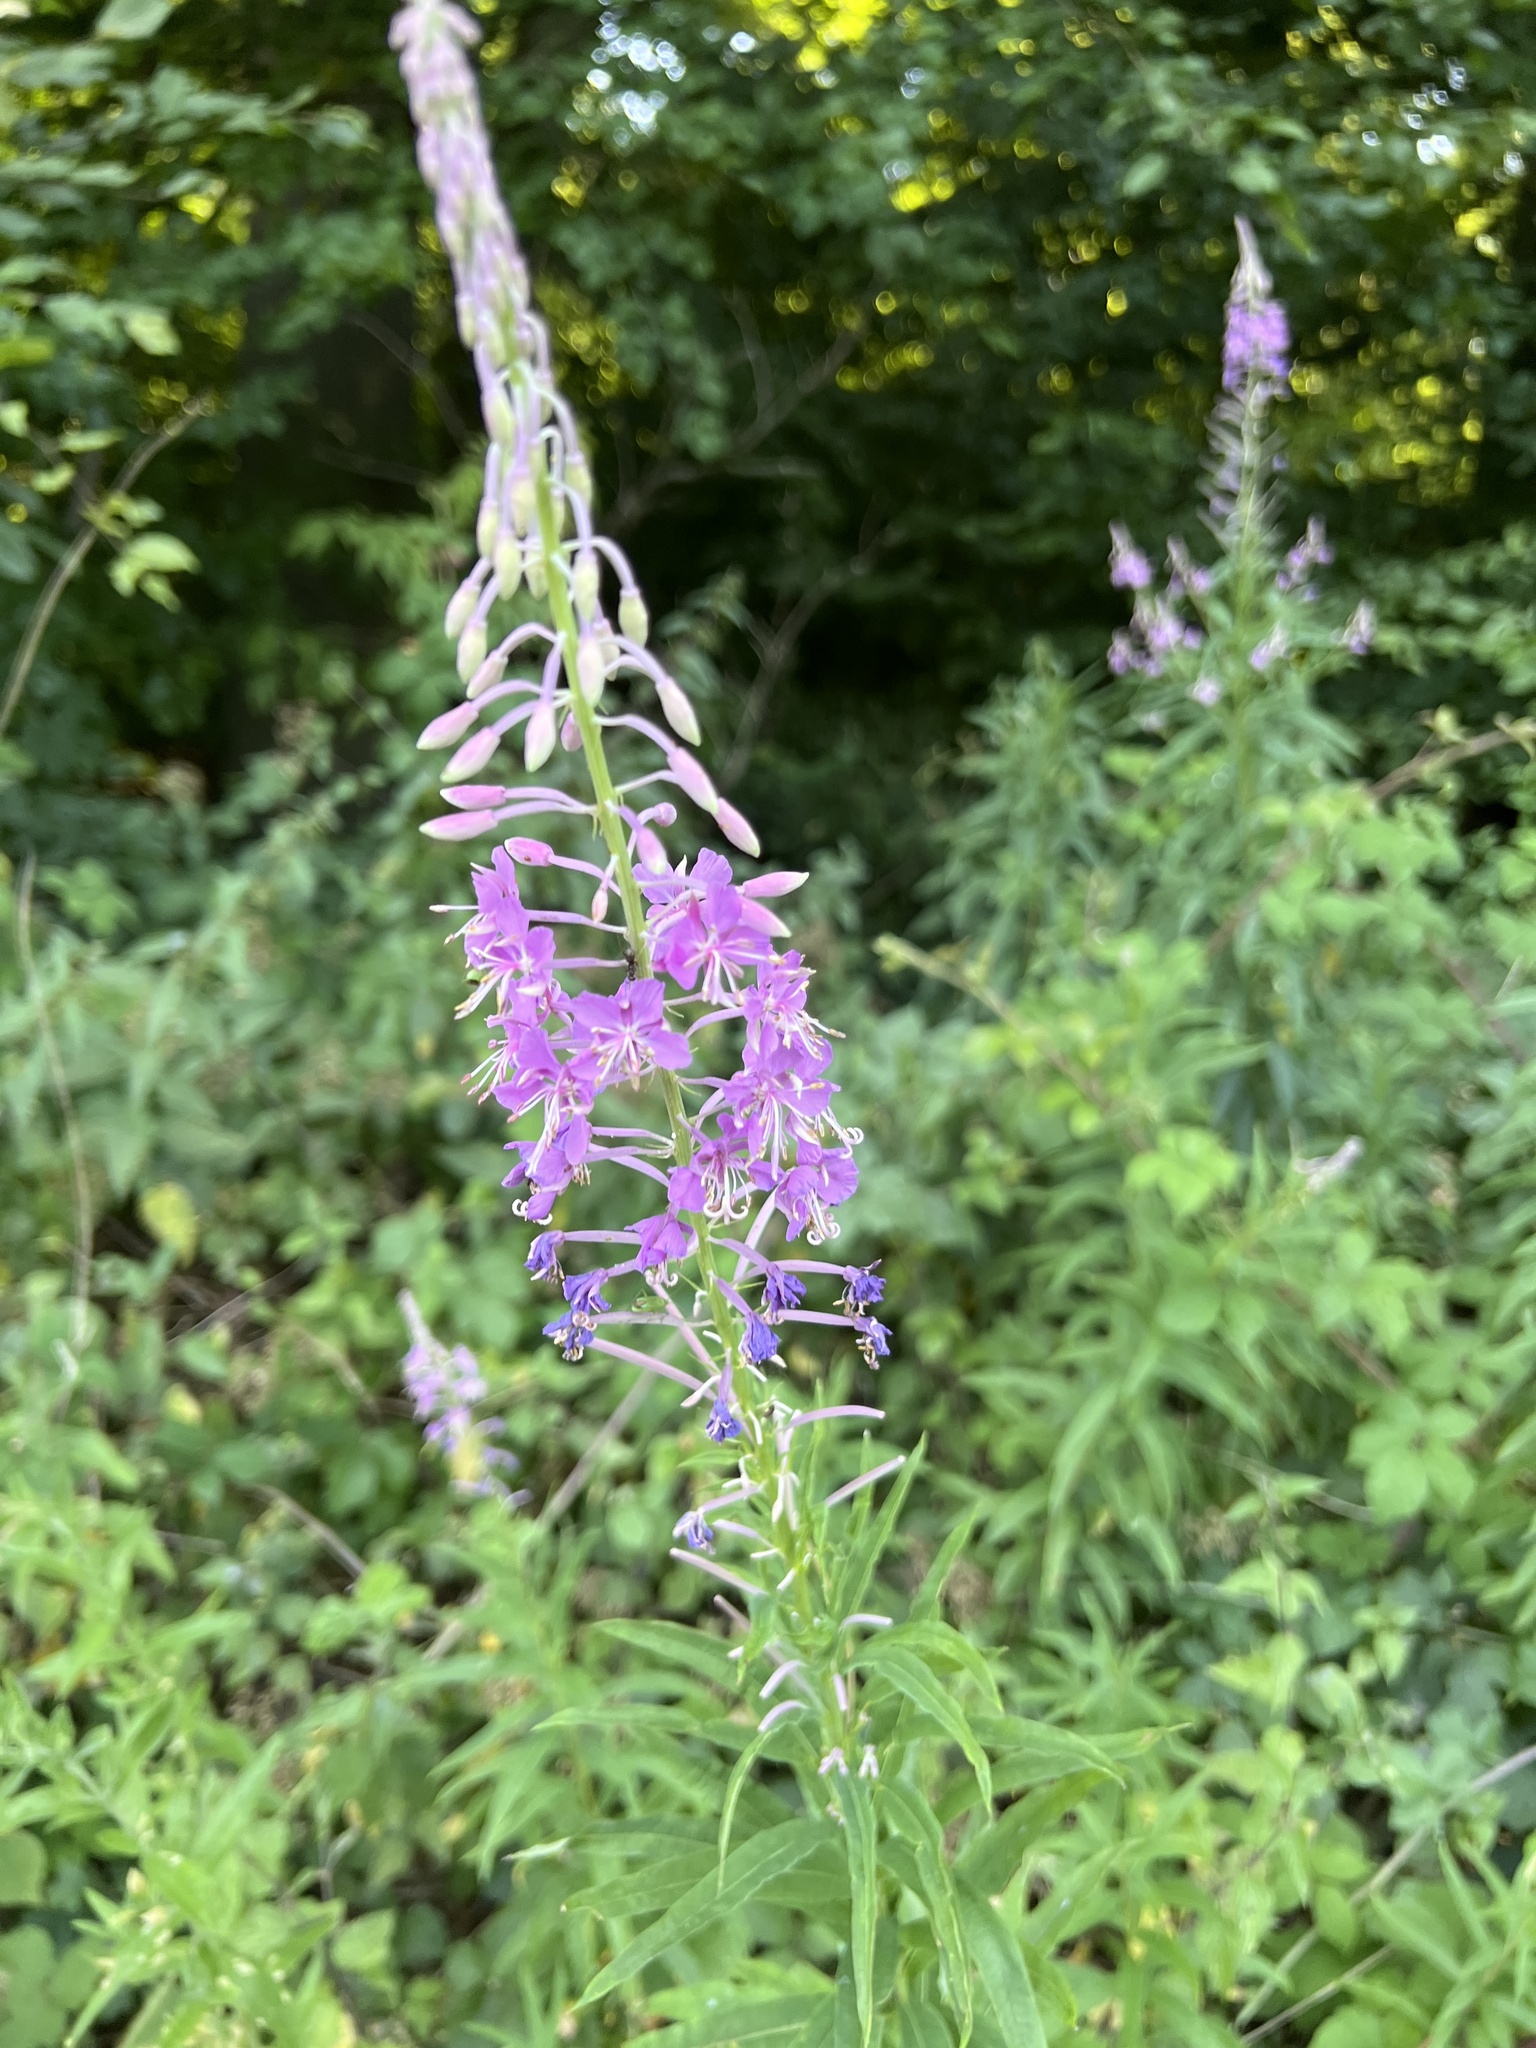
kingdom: Plantae
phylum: Tracheophyta
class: Magnoliopsida
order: Myrtales
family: Onagraceae
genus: Chamaenerion
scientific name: Chamaenerion angustifolium
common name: Fireweed
